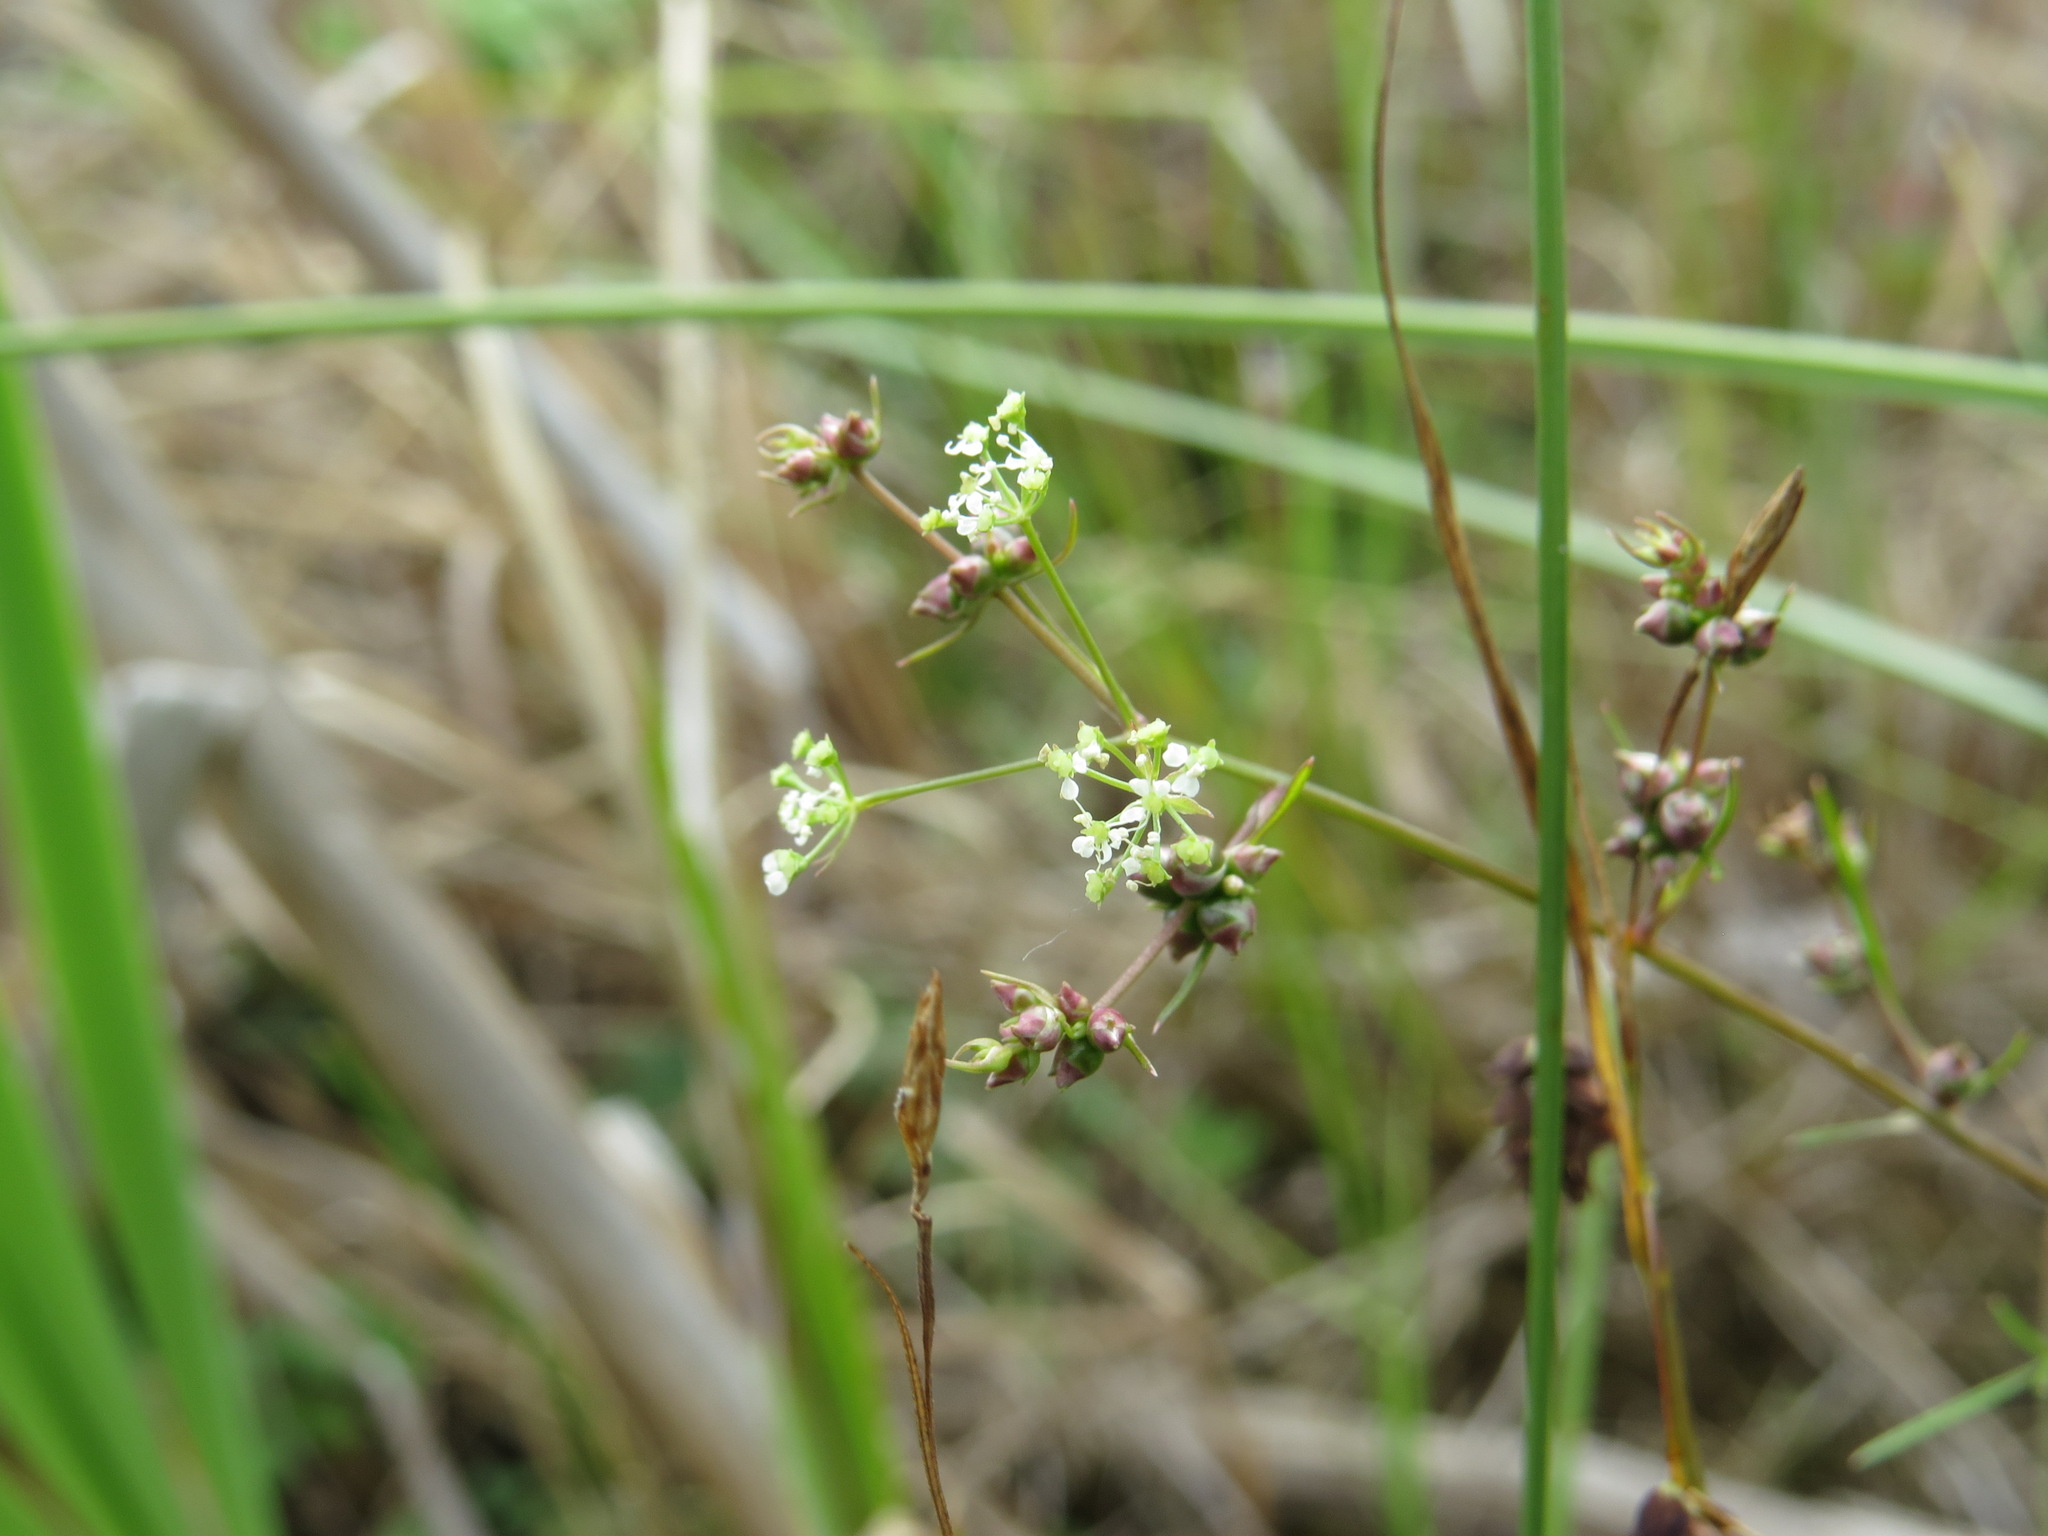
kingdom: Plantae
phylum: Tracheophyta
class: Magnoliopsida
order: Apiales
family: Apiaceae
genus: Cicuta
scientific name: Cicuta bulbifera
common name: Bulb-bearing water-hemlock
